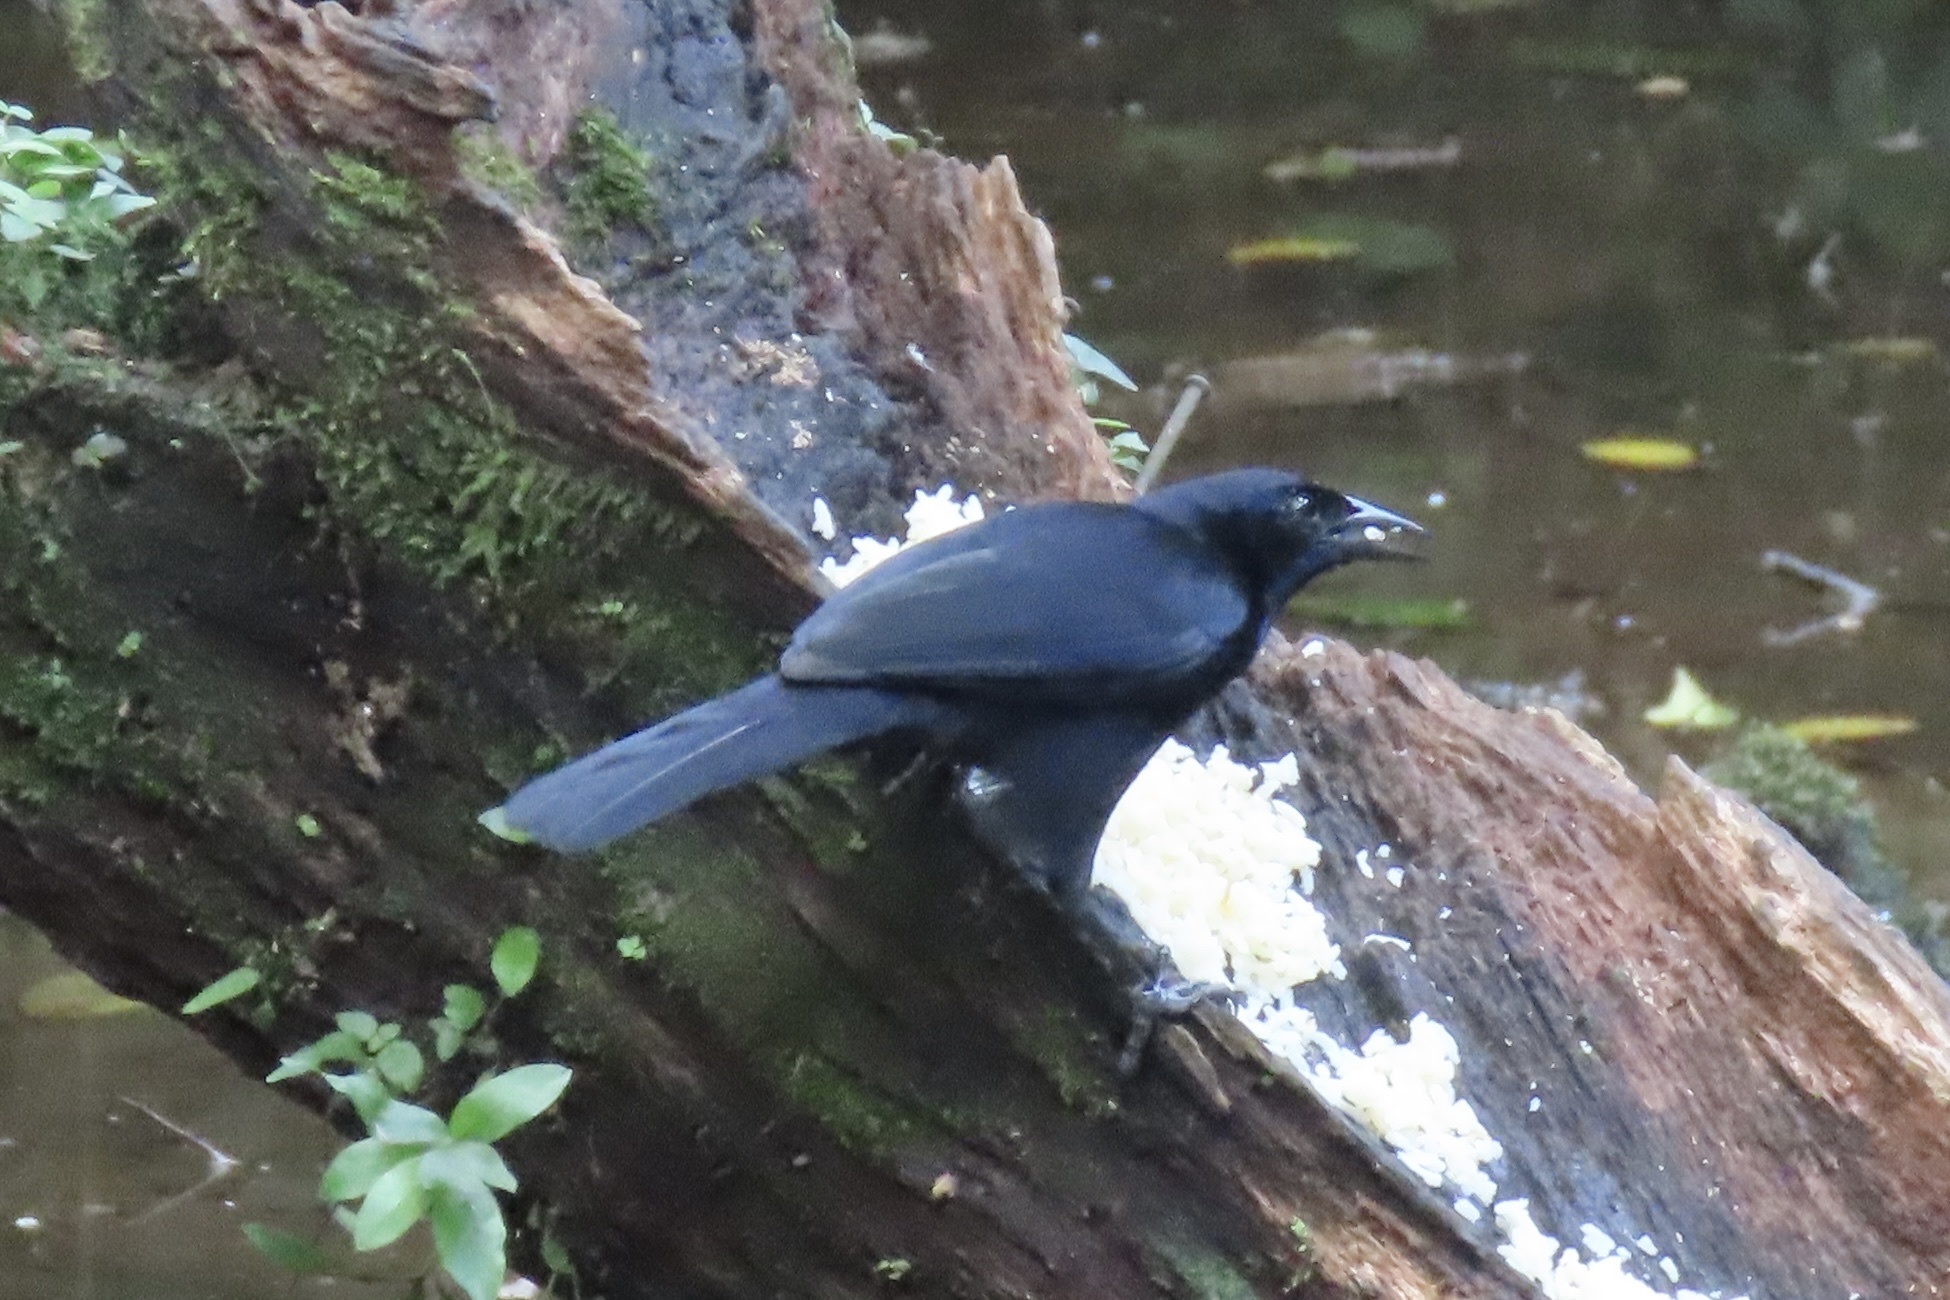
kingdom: Animalia
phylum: Chordata
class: Aves
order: Passeriformes
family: Icteridae
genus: Dives
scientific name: Dives dives
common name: Melodious blackbird
